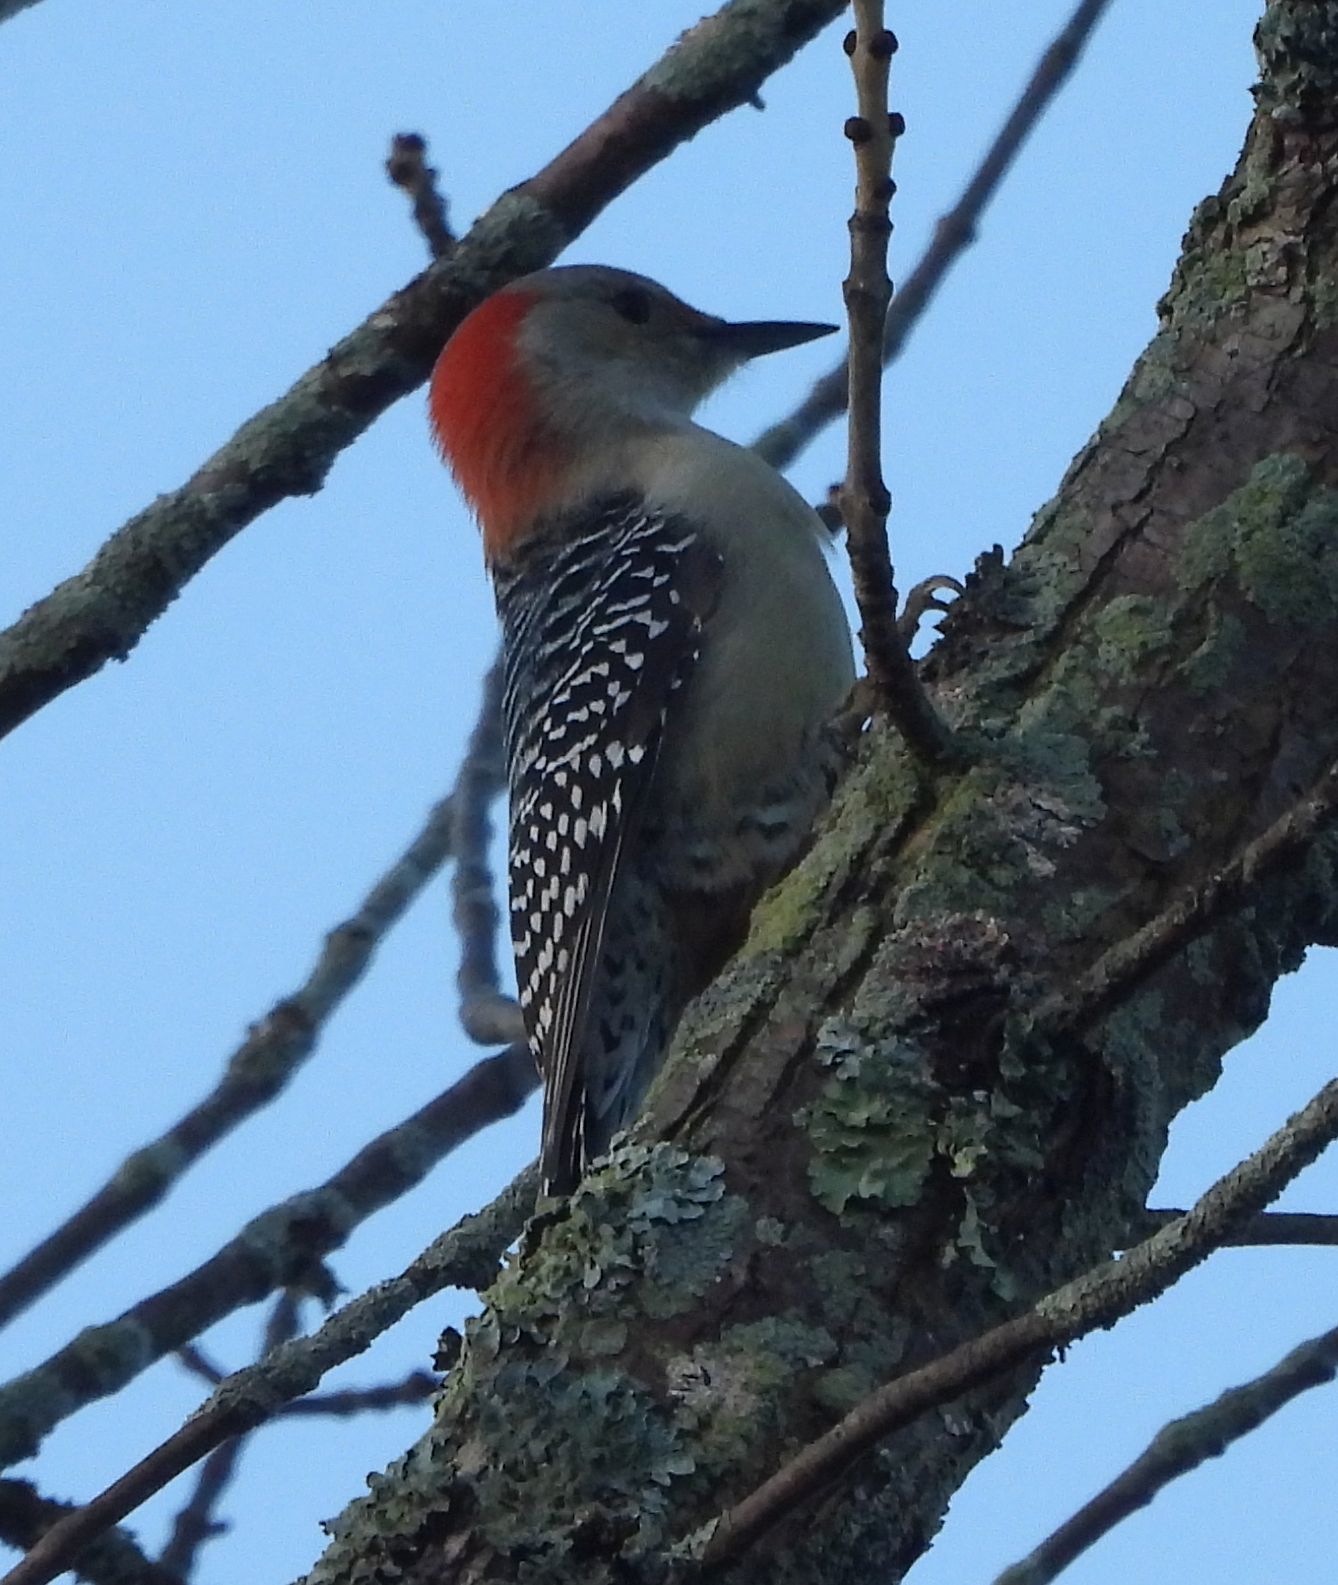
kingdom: Animalia
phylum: Chordata
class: Aves
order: Piciformes
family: Picidae
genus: Melanerpes
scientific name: Melanerpes carolinus
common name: Red-bellied woodpecker
